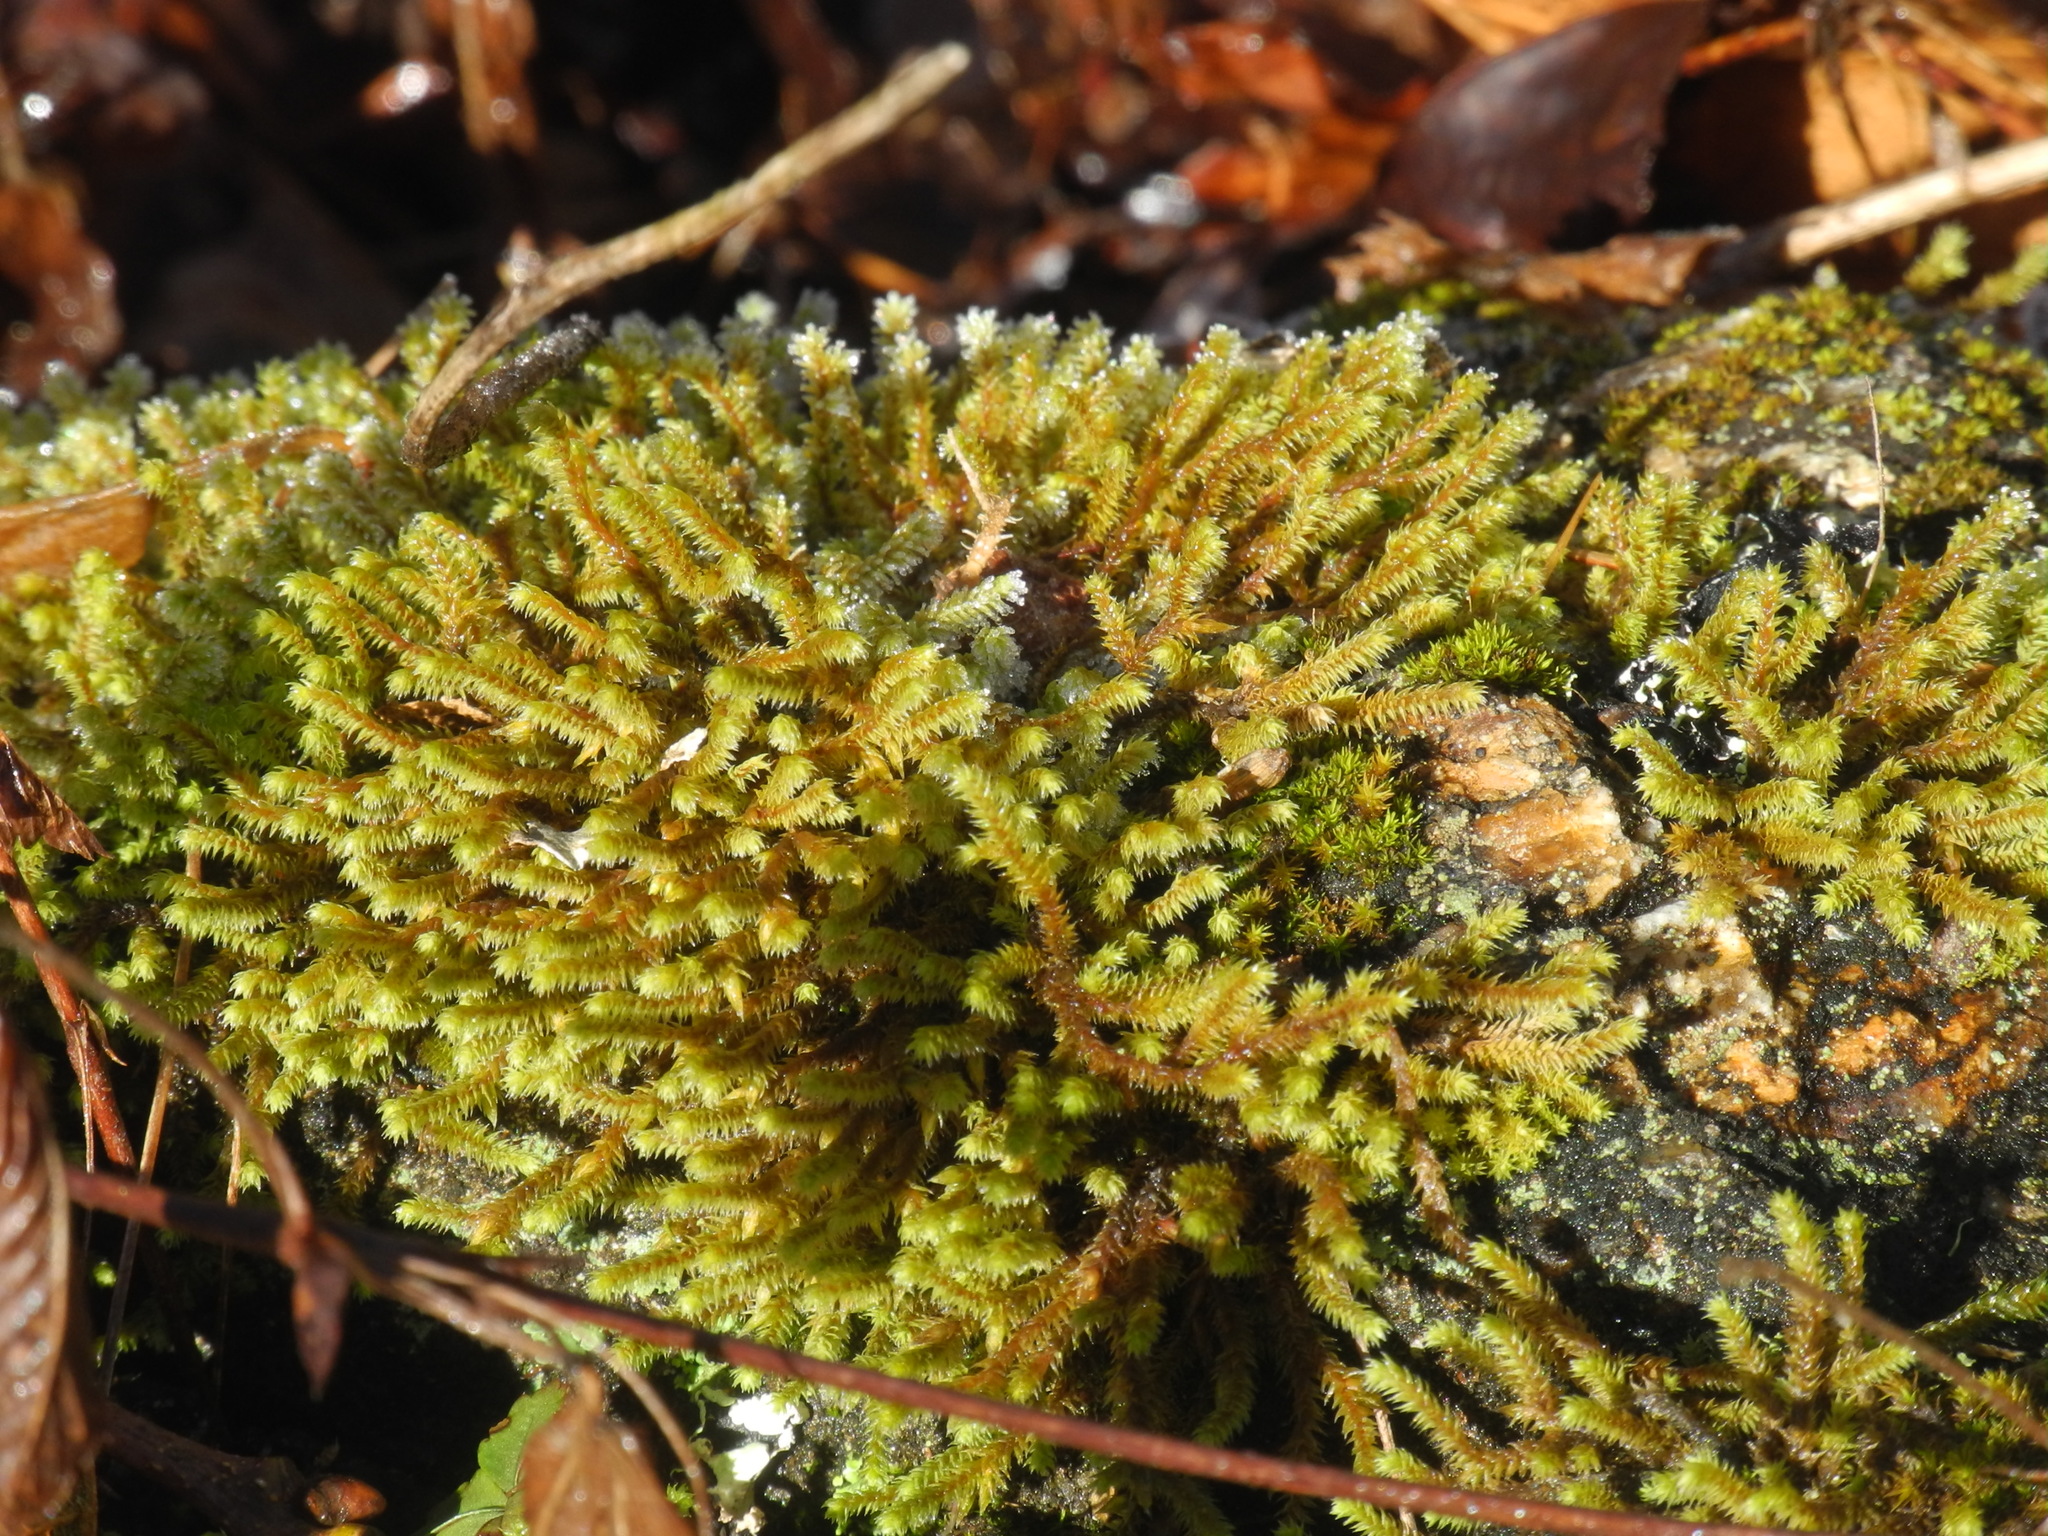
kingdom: Plantae
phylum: Bryophyta
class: Bryopsida
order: Hedwigiales
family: Hedwigiaceae
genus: Hedwigia
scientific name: Hedwigia ciliata
